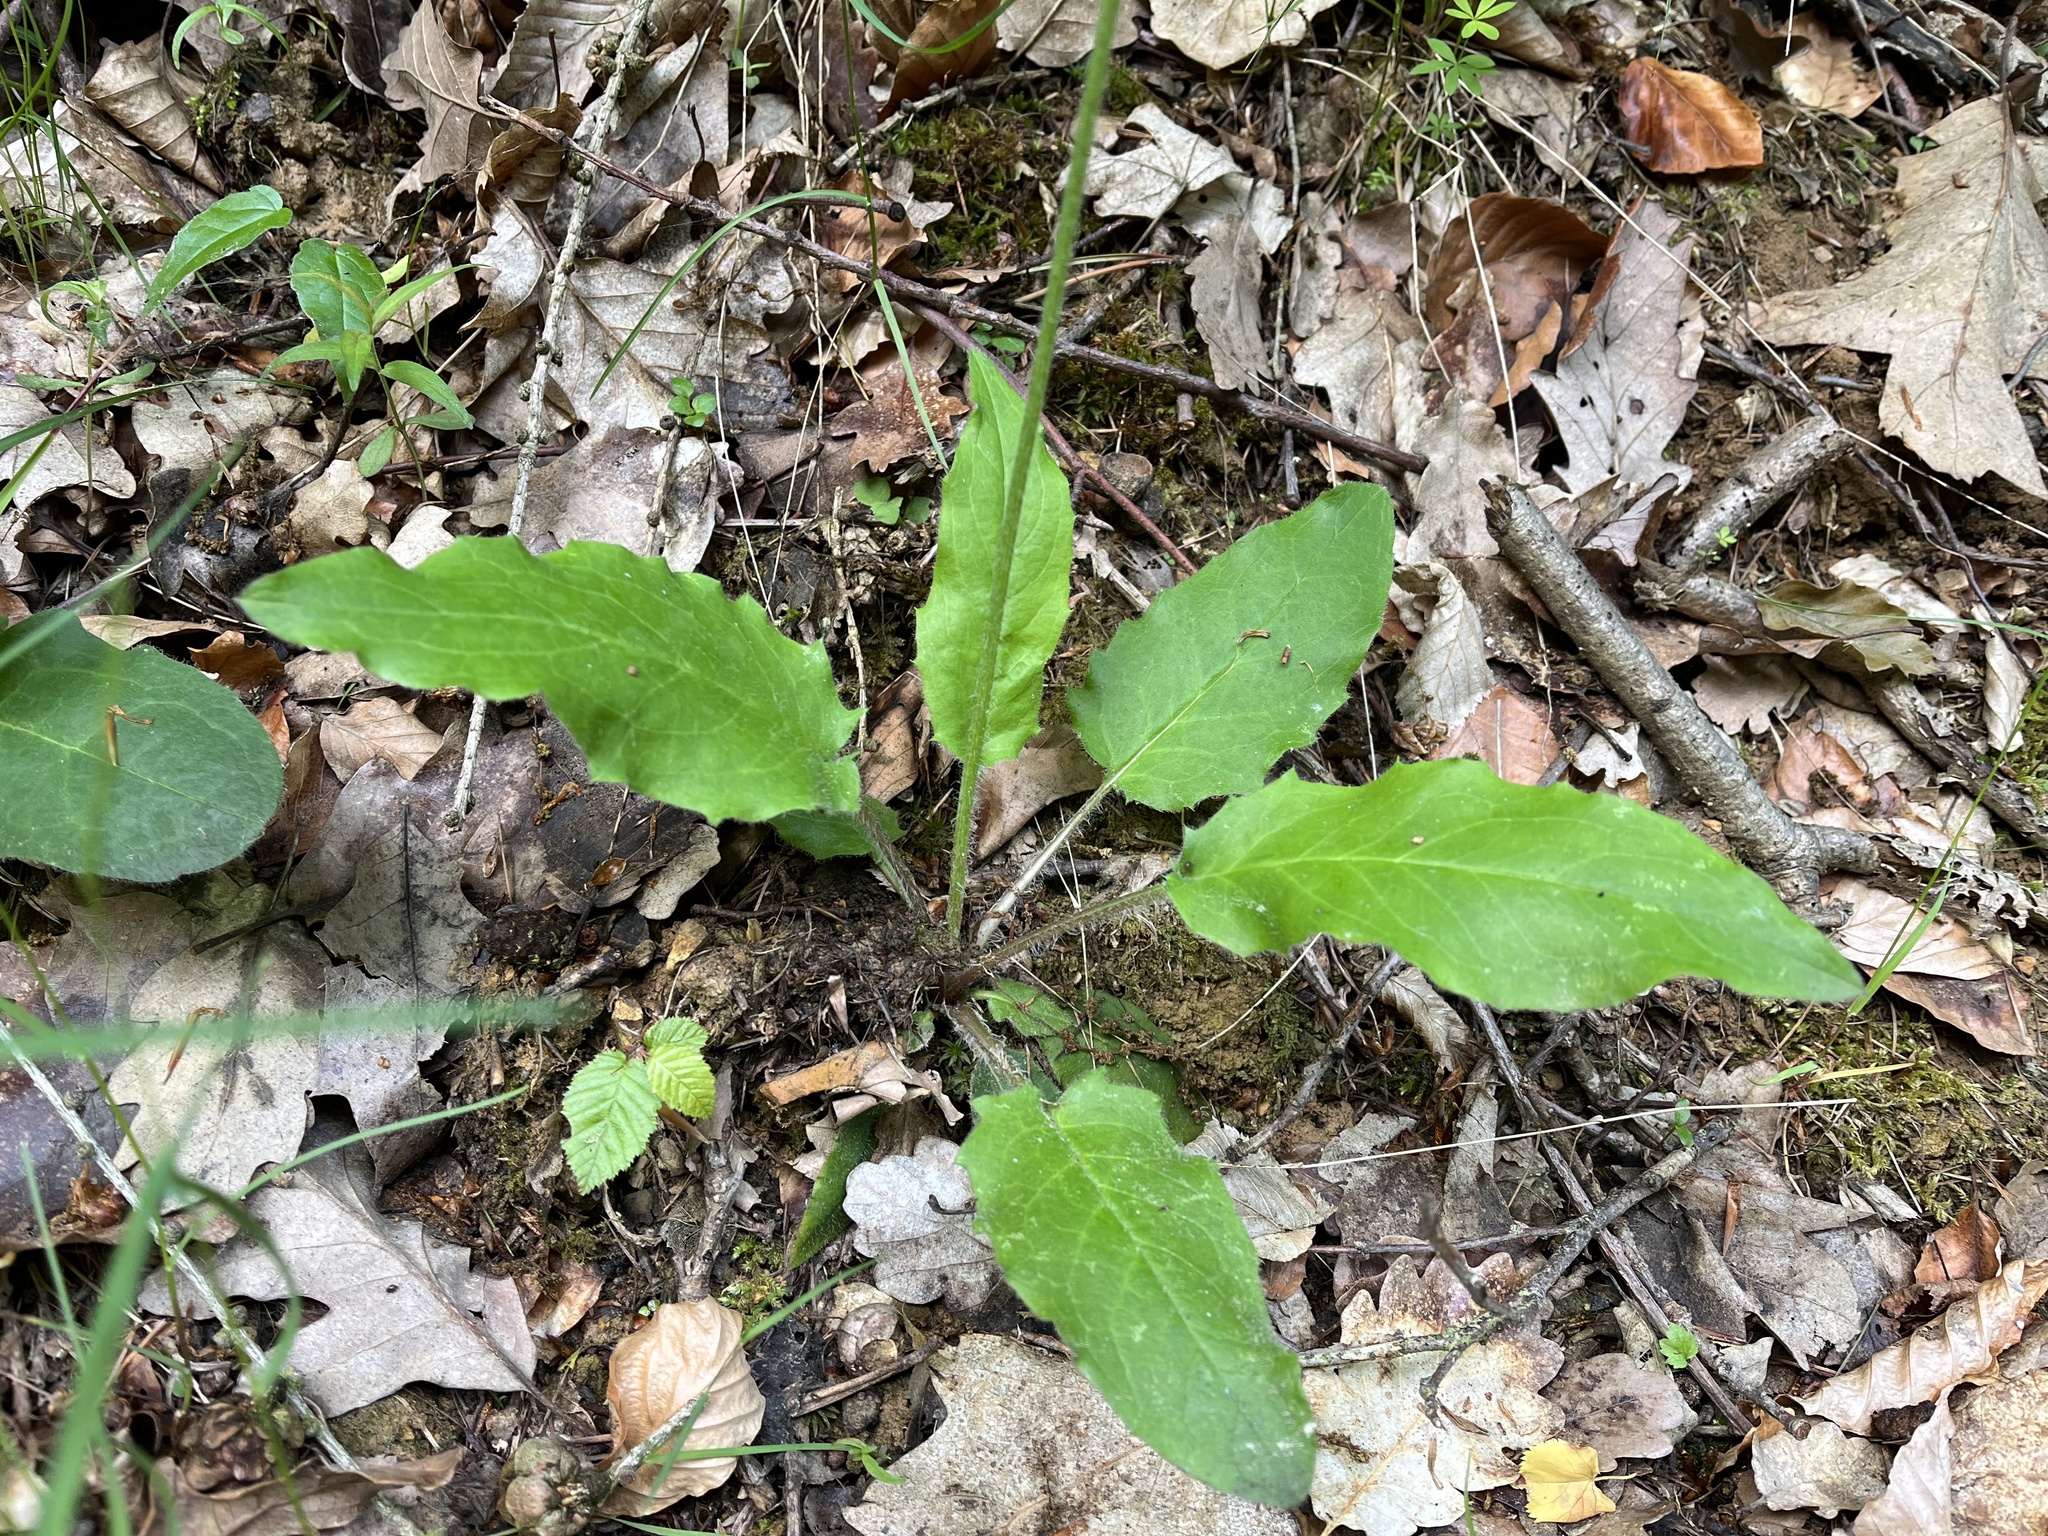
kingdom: Plantae
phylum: Tracheophyta
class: Magnoliopsida
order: Asterales
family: Asteraceae
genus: Hieracium
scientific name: Hieracium murorum
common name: Wall hawkweed
